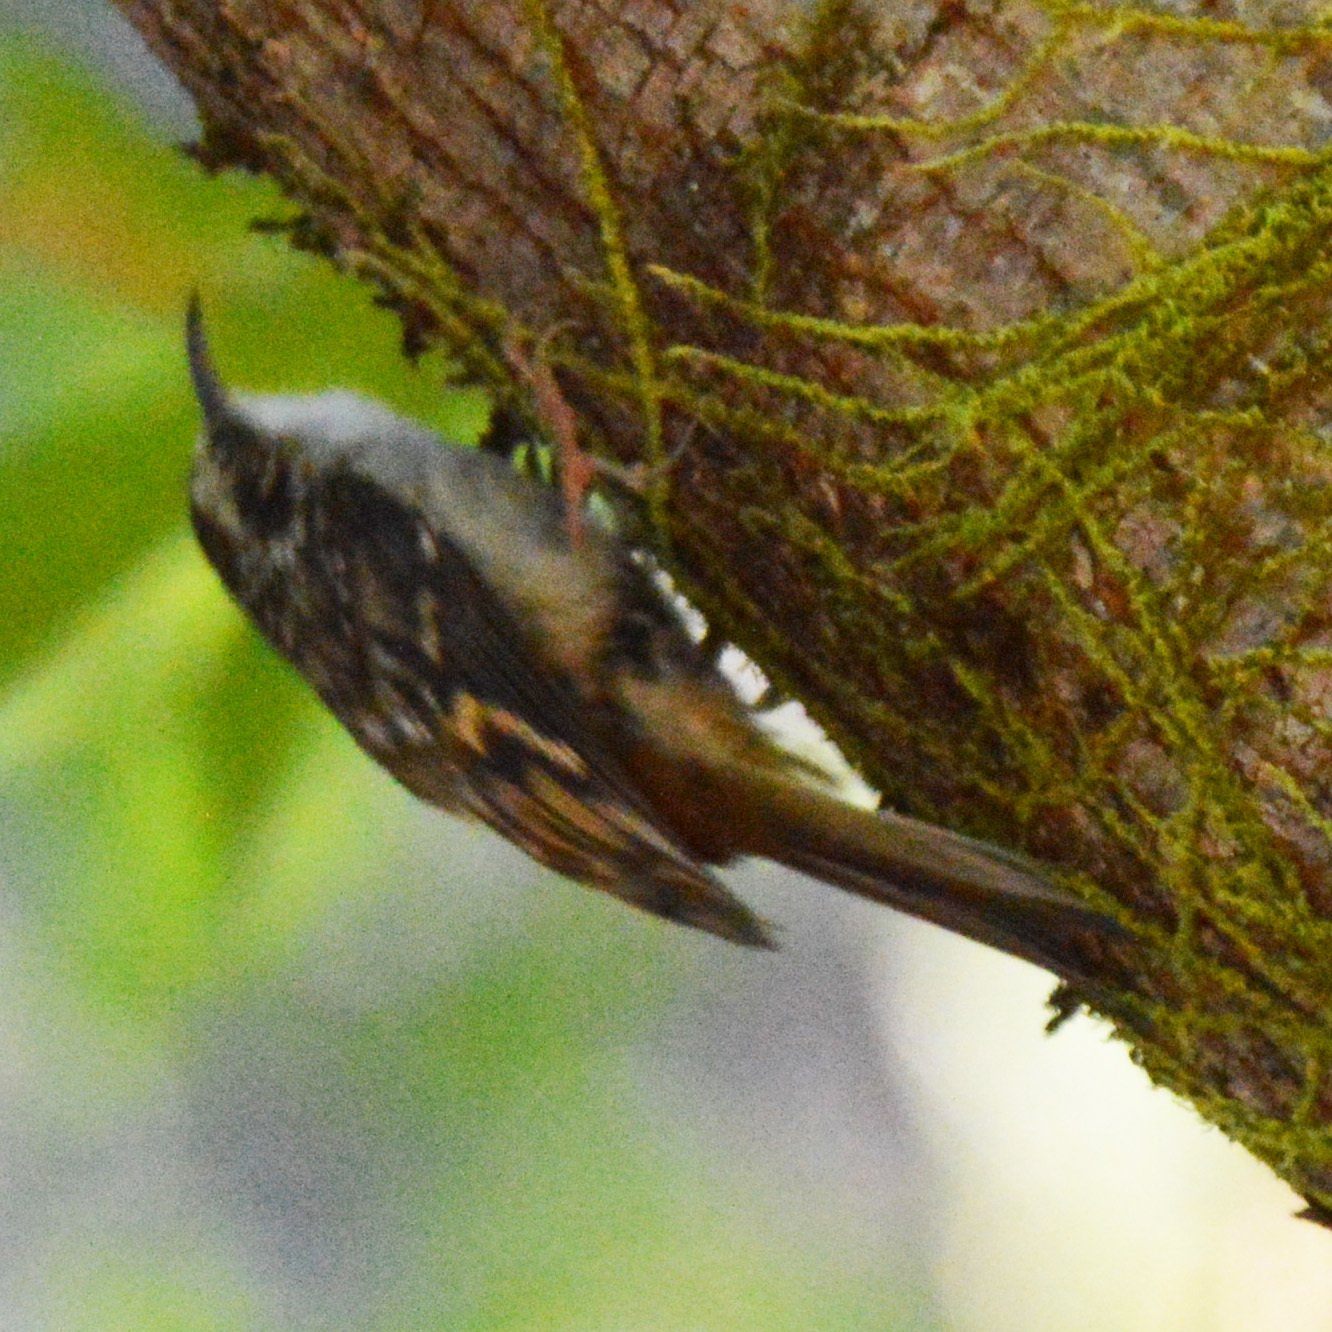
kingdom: Animalia
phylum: Chordata
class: Aves
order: Passeriformes
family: Certhiidae
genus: Certhia
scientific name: Certhia americana
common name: Brown creeper
